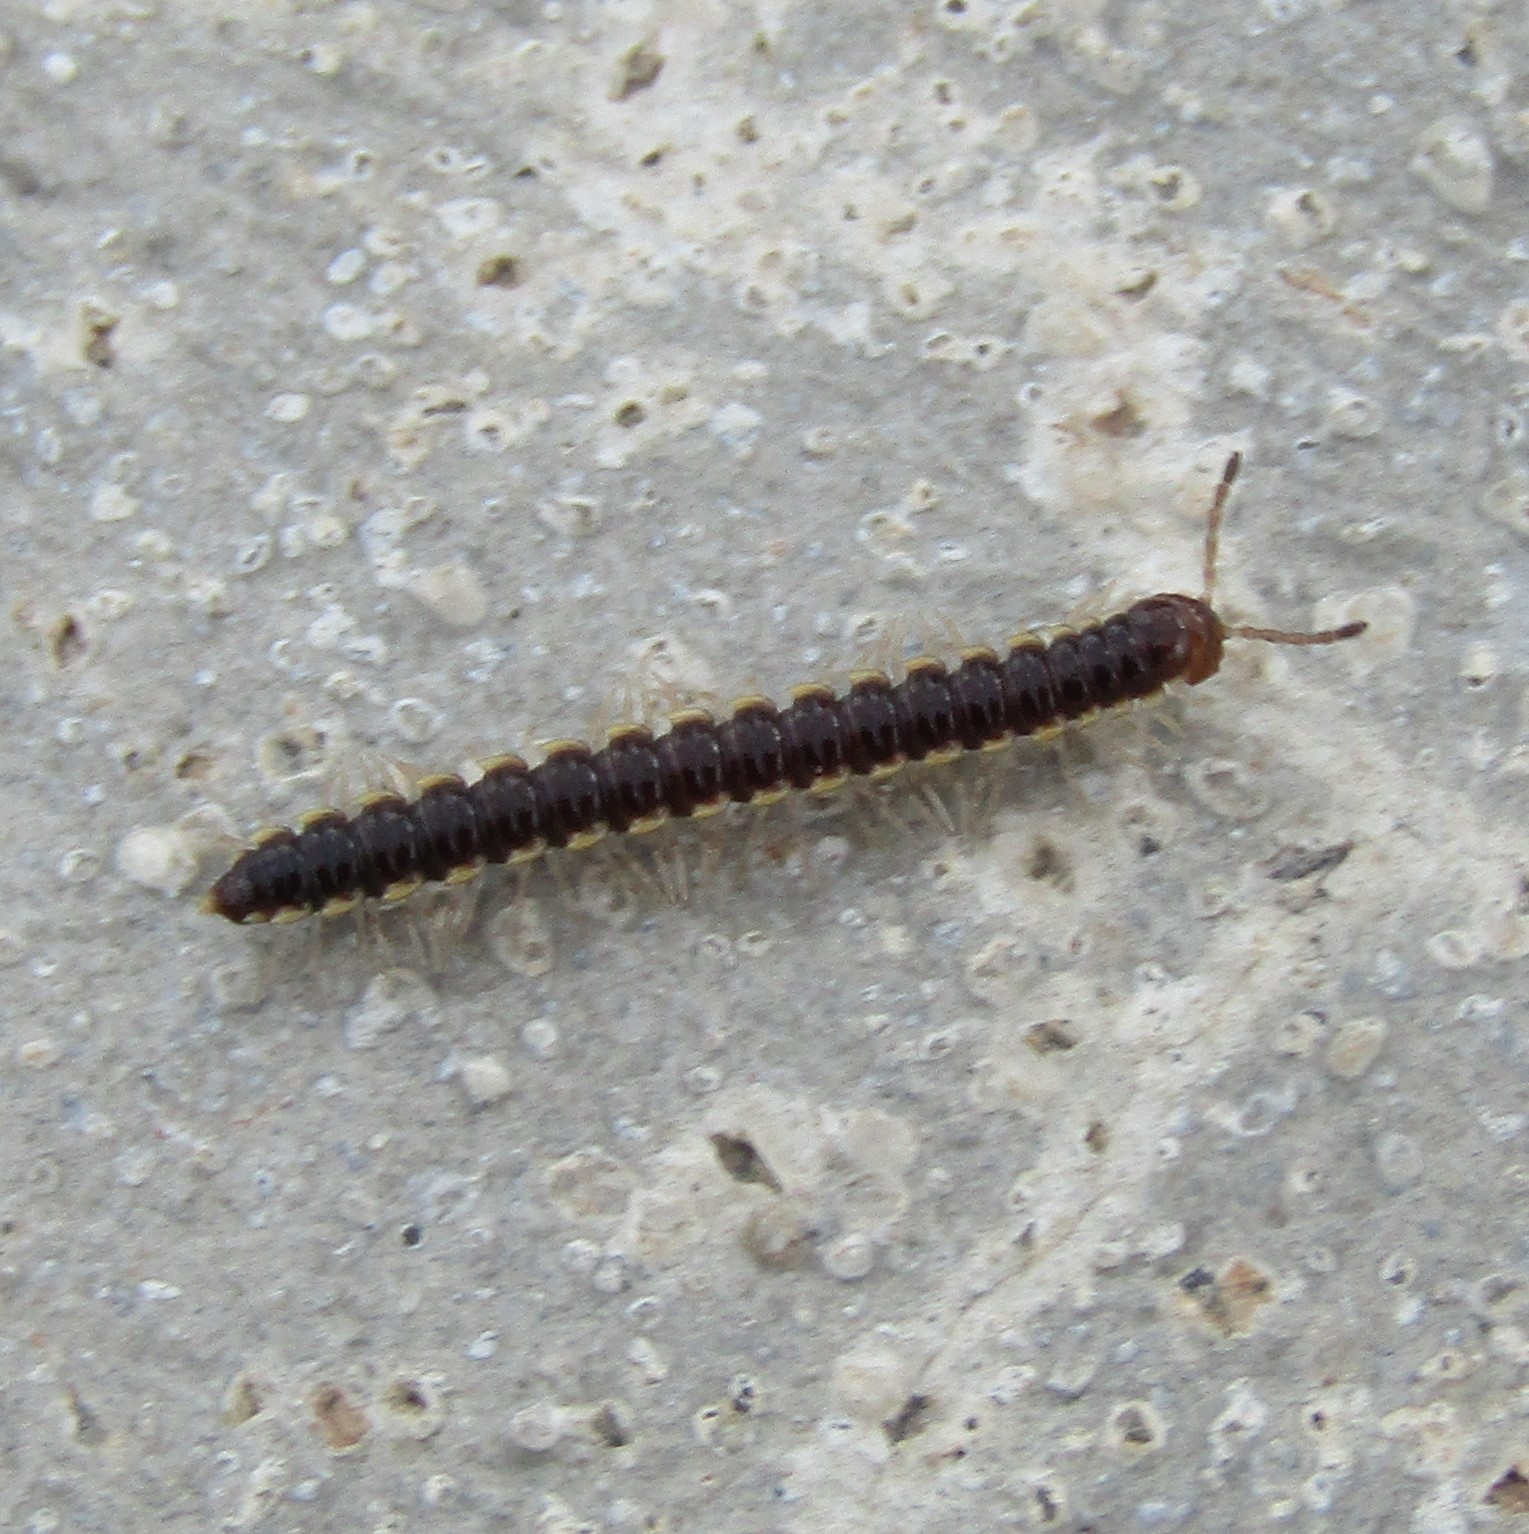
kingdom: Animalia
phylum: Arthropoda
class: Diplopoda
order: Polydesmida
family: Paradoxosomatidae
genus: Orthomorpha
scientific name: Orthomorpha coarctata
